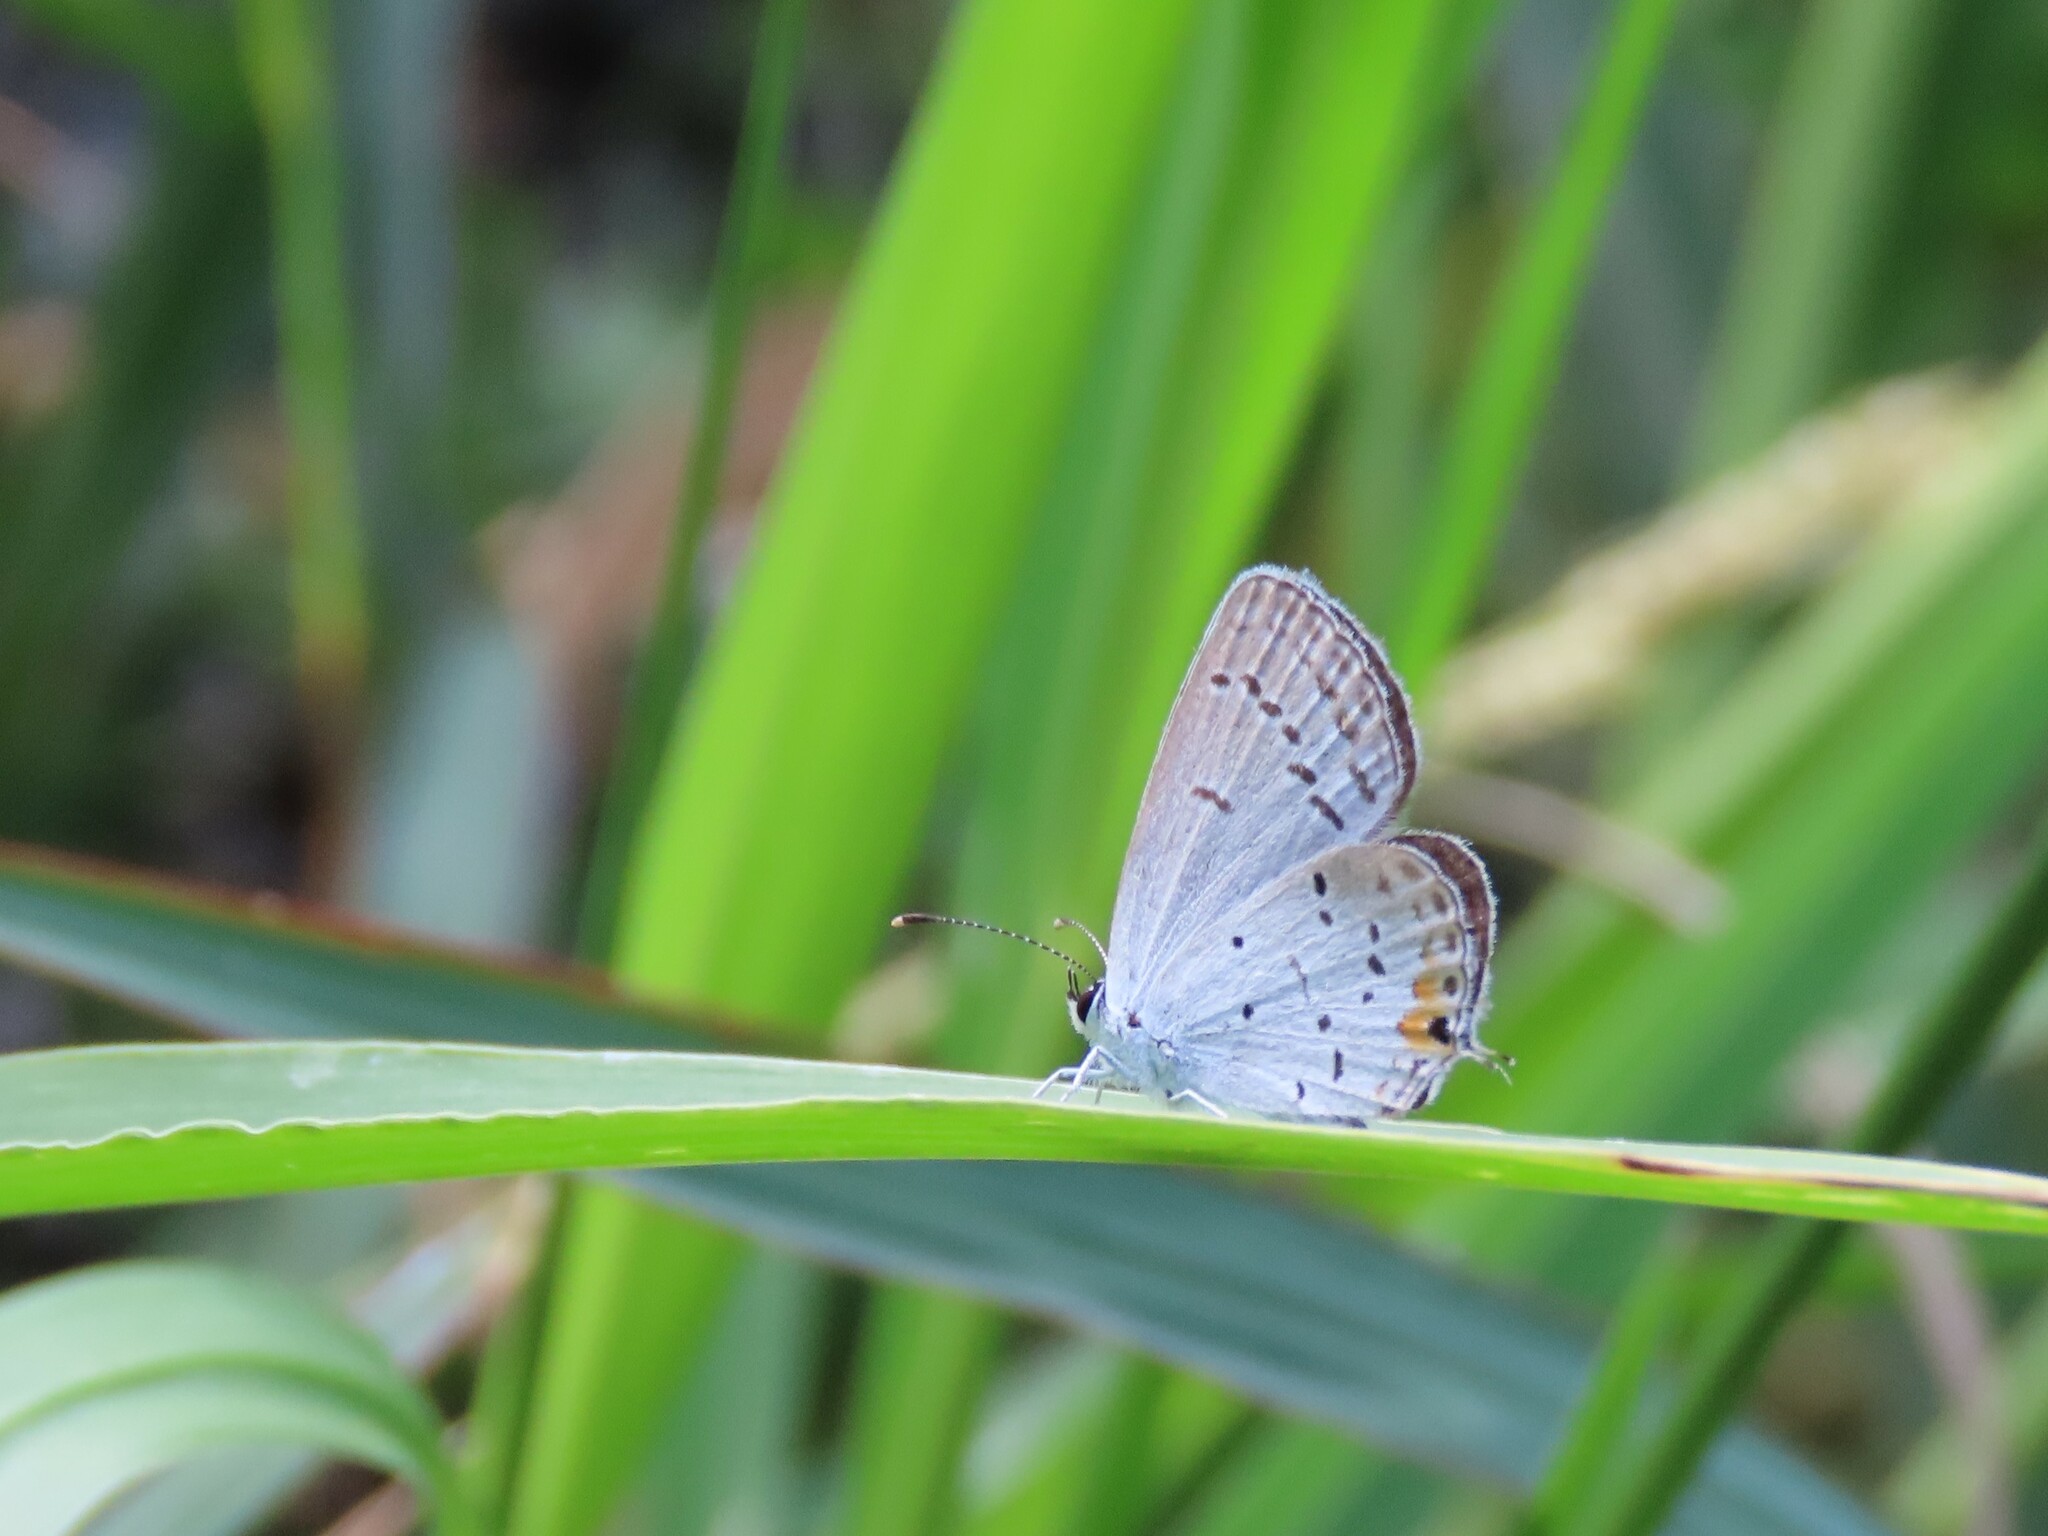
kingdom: Animalia
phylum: Arthropoda
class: Insecta
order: Lepidoptera
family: Lycaenidae
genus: Elkalyce
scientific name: Elkalyce comyntas
